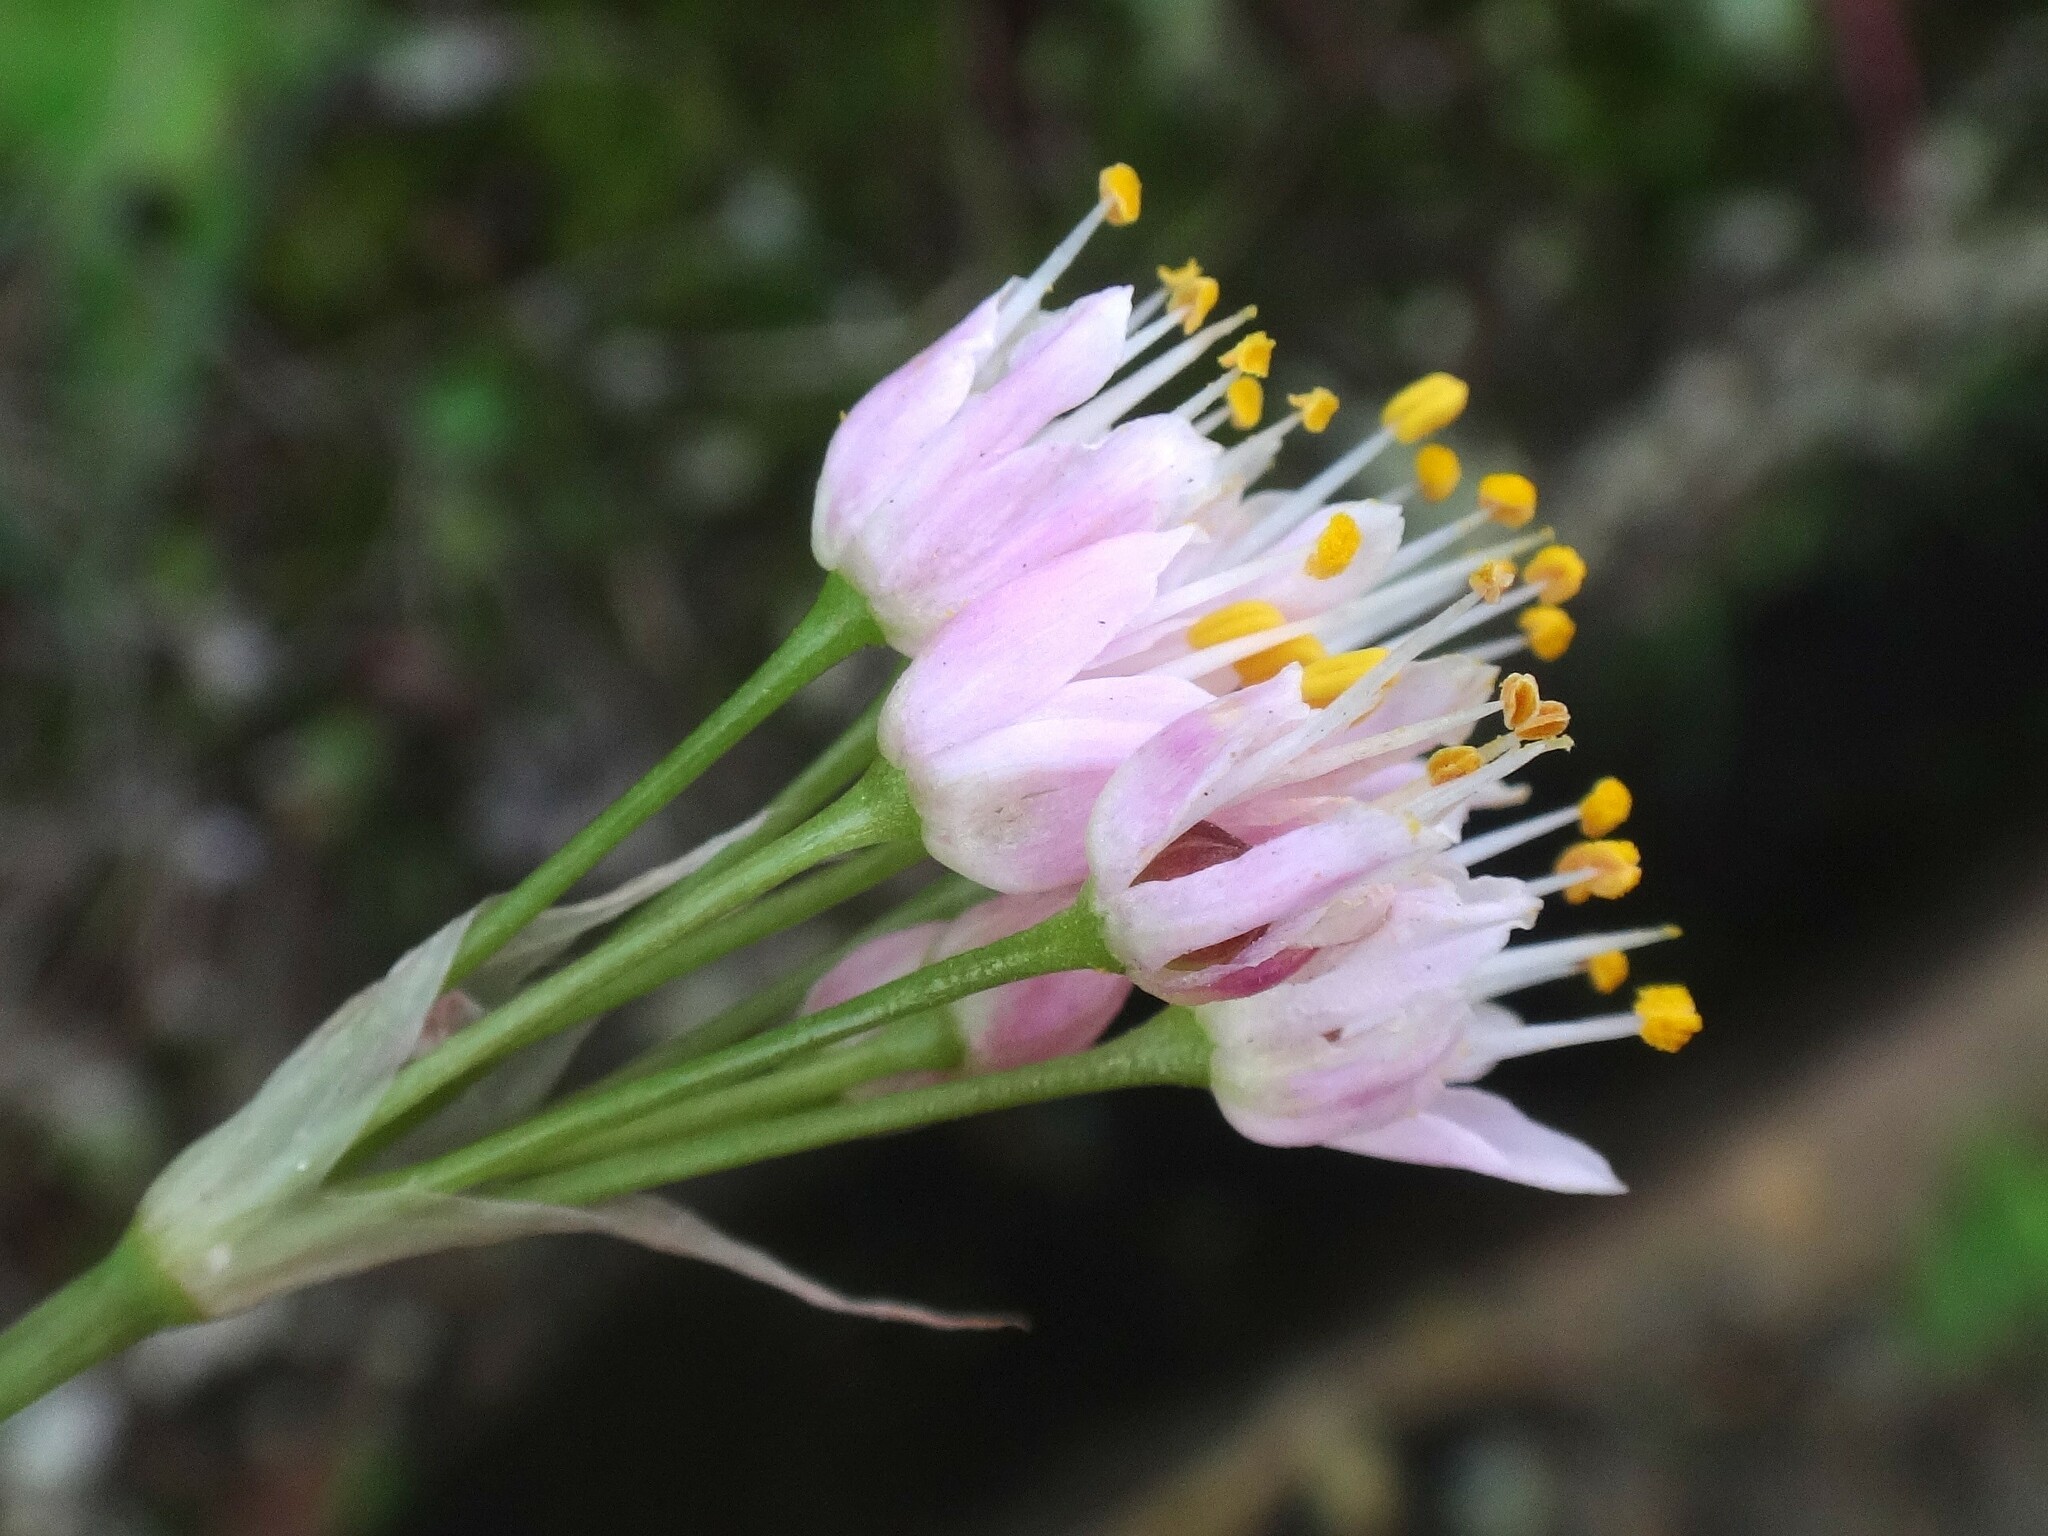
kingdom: Plantae
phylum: Tracheophyta
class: Liliopsida
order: Asparagales
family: Amaryllidaceae
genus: Allium
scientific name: Allium canariense
